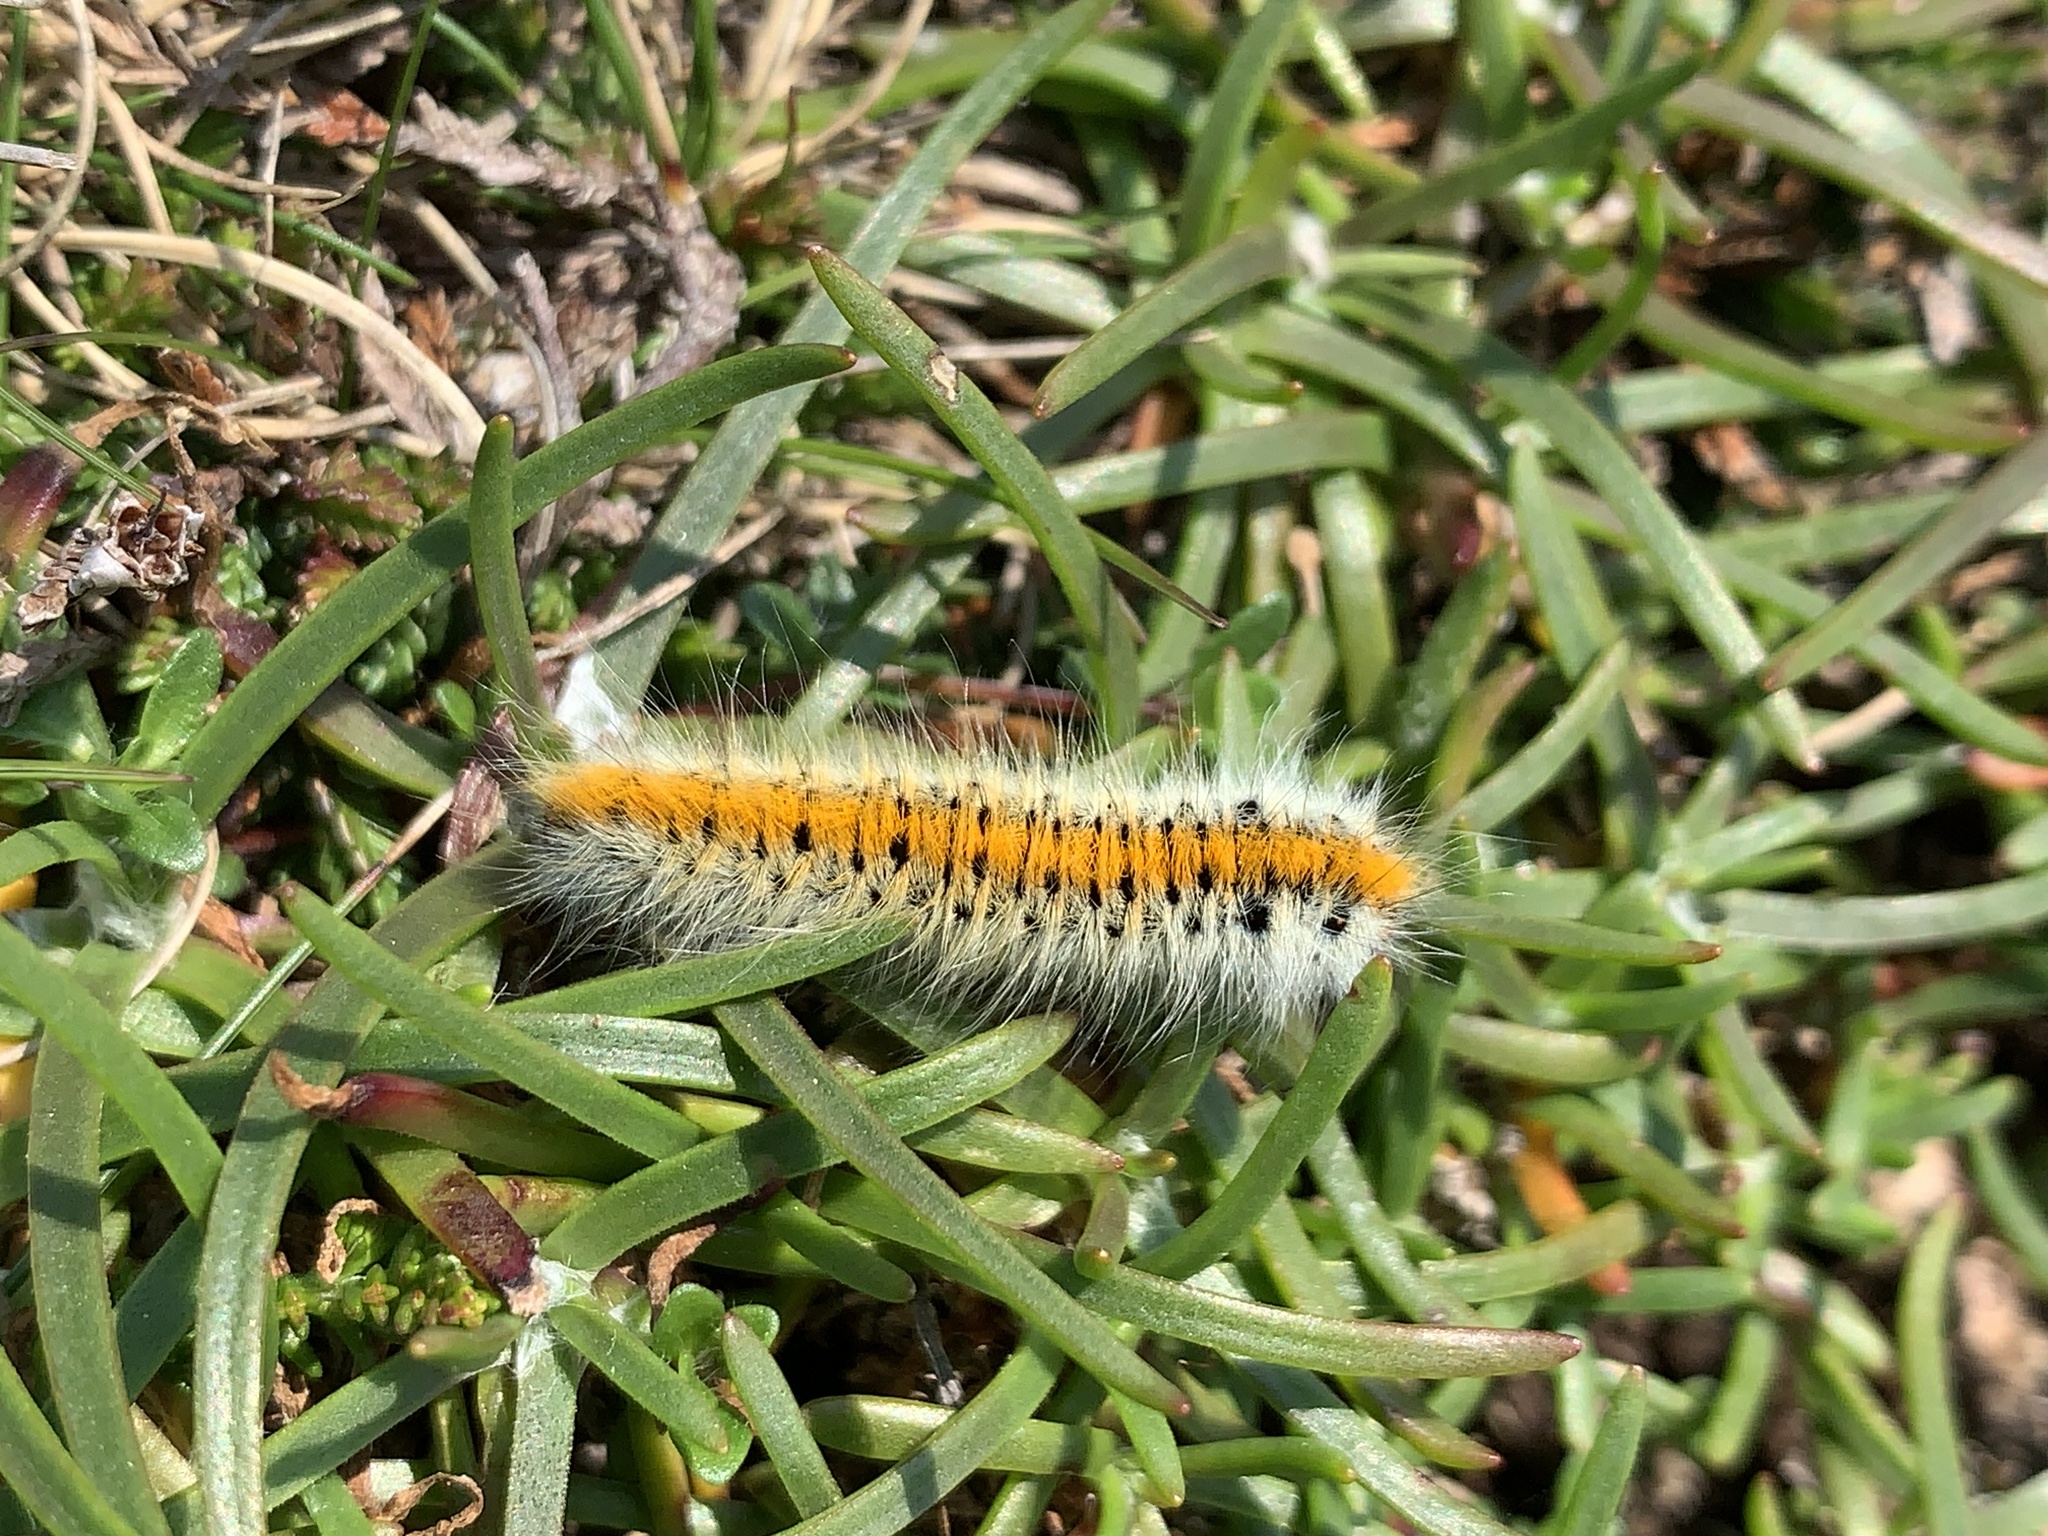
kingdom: Animalia
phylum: Arthropoda
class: Insecta
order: Lepidoptera
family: Lasiocampidae
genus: Lasiocampa
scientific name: Lasiocampa trifolii
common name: Grass eggar
